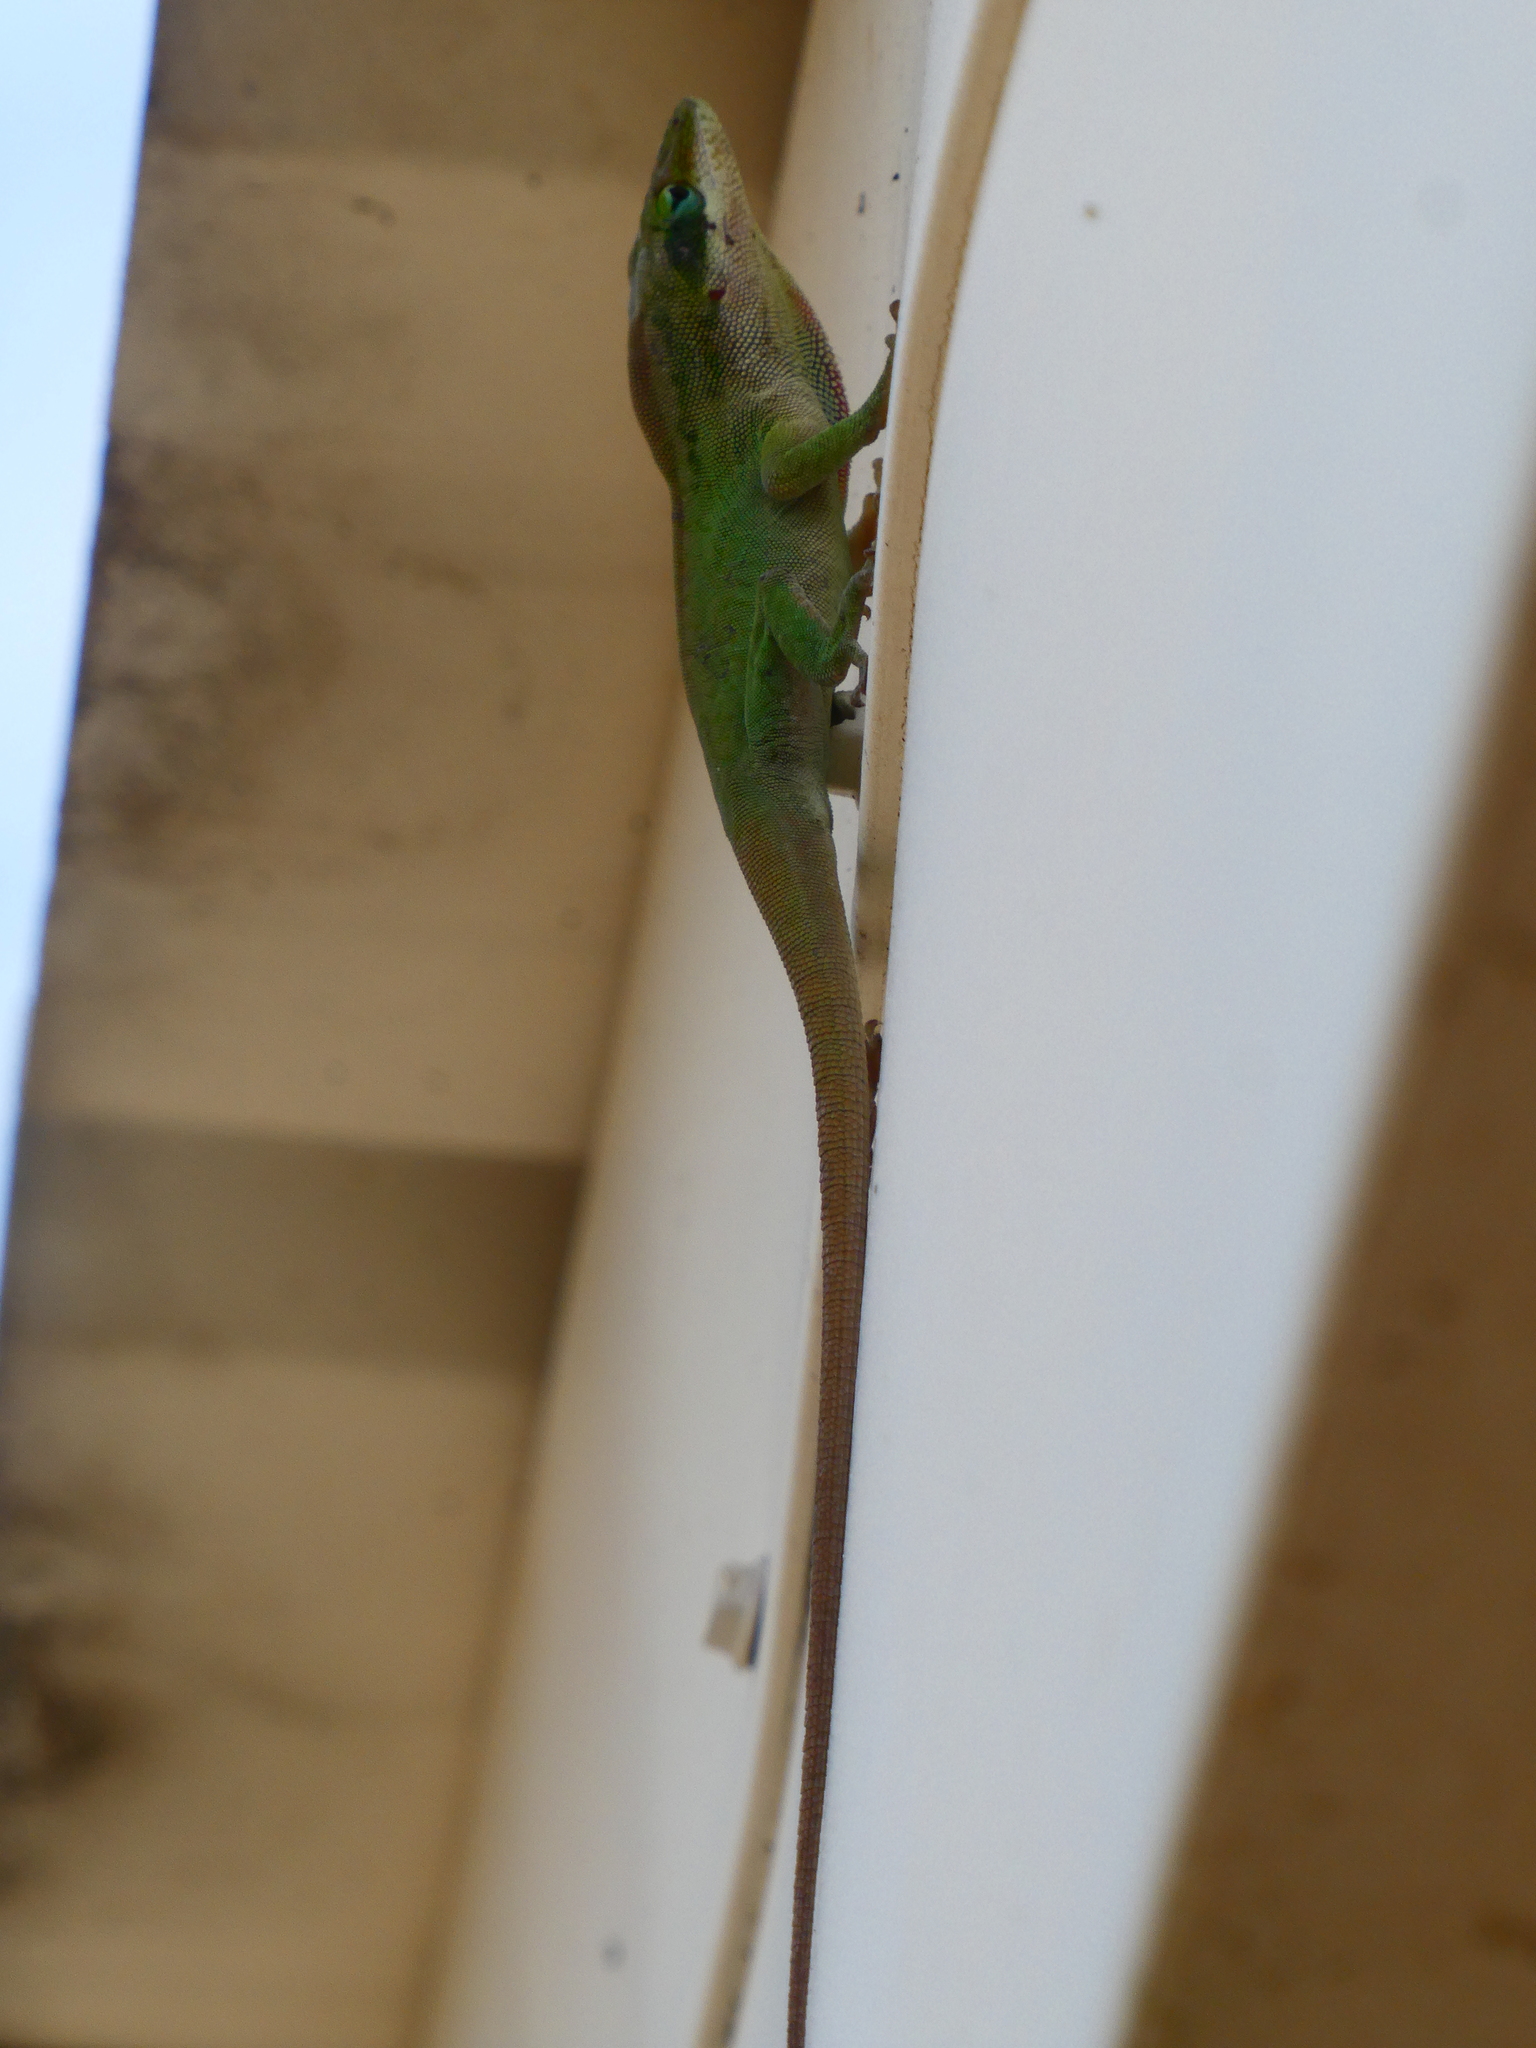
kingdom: Animalia
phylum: Chordata
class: Squamata
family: Dactyloidae
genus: Anolis
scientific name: Anolis carolinensis
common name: Green anole
